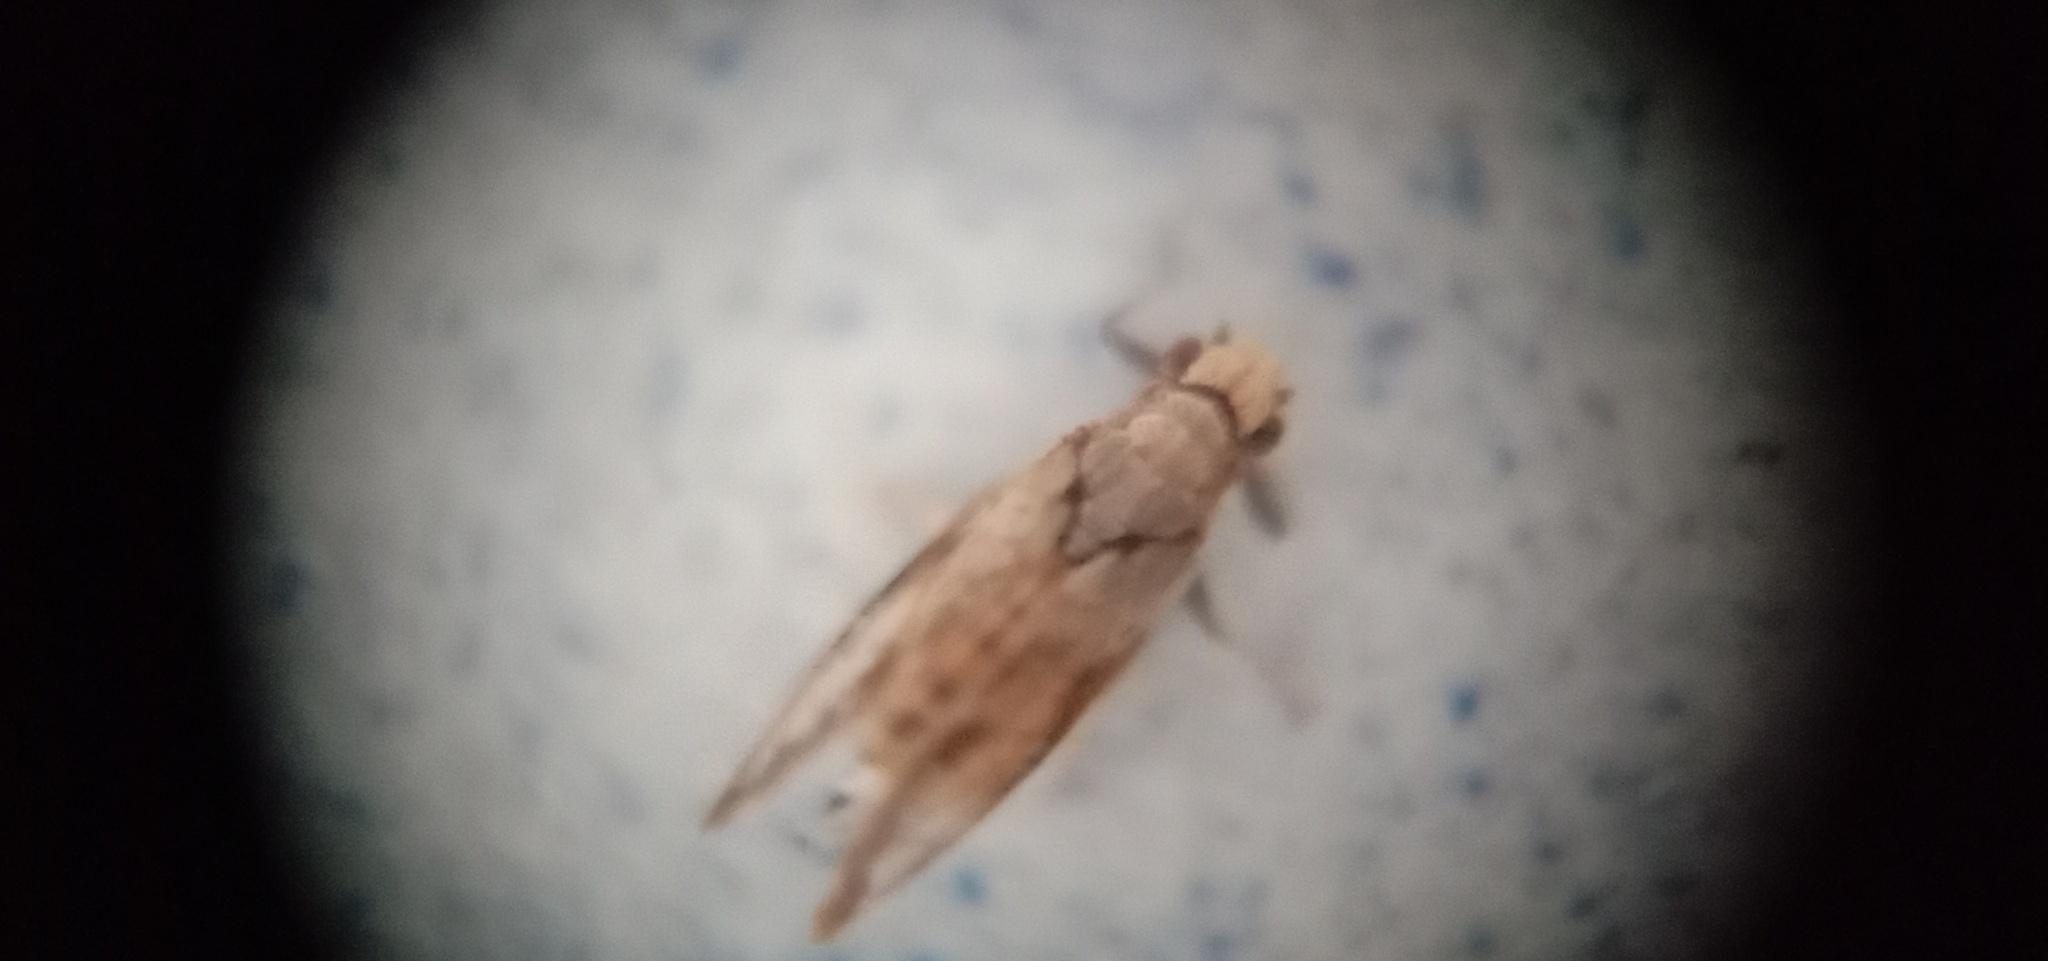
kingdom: Animalia
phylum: Arthropoda
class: Insecta
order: Hemiptera
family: Liviidae
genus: Diaphorina
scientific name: Diaphorina citri
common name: Asian citrus psyllid
